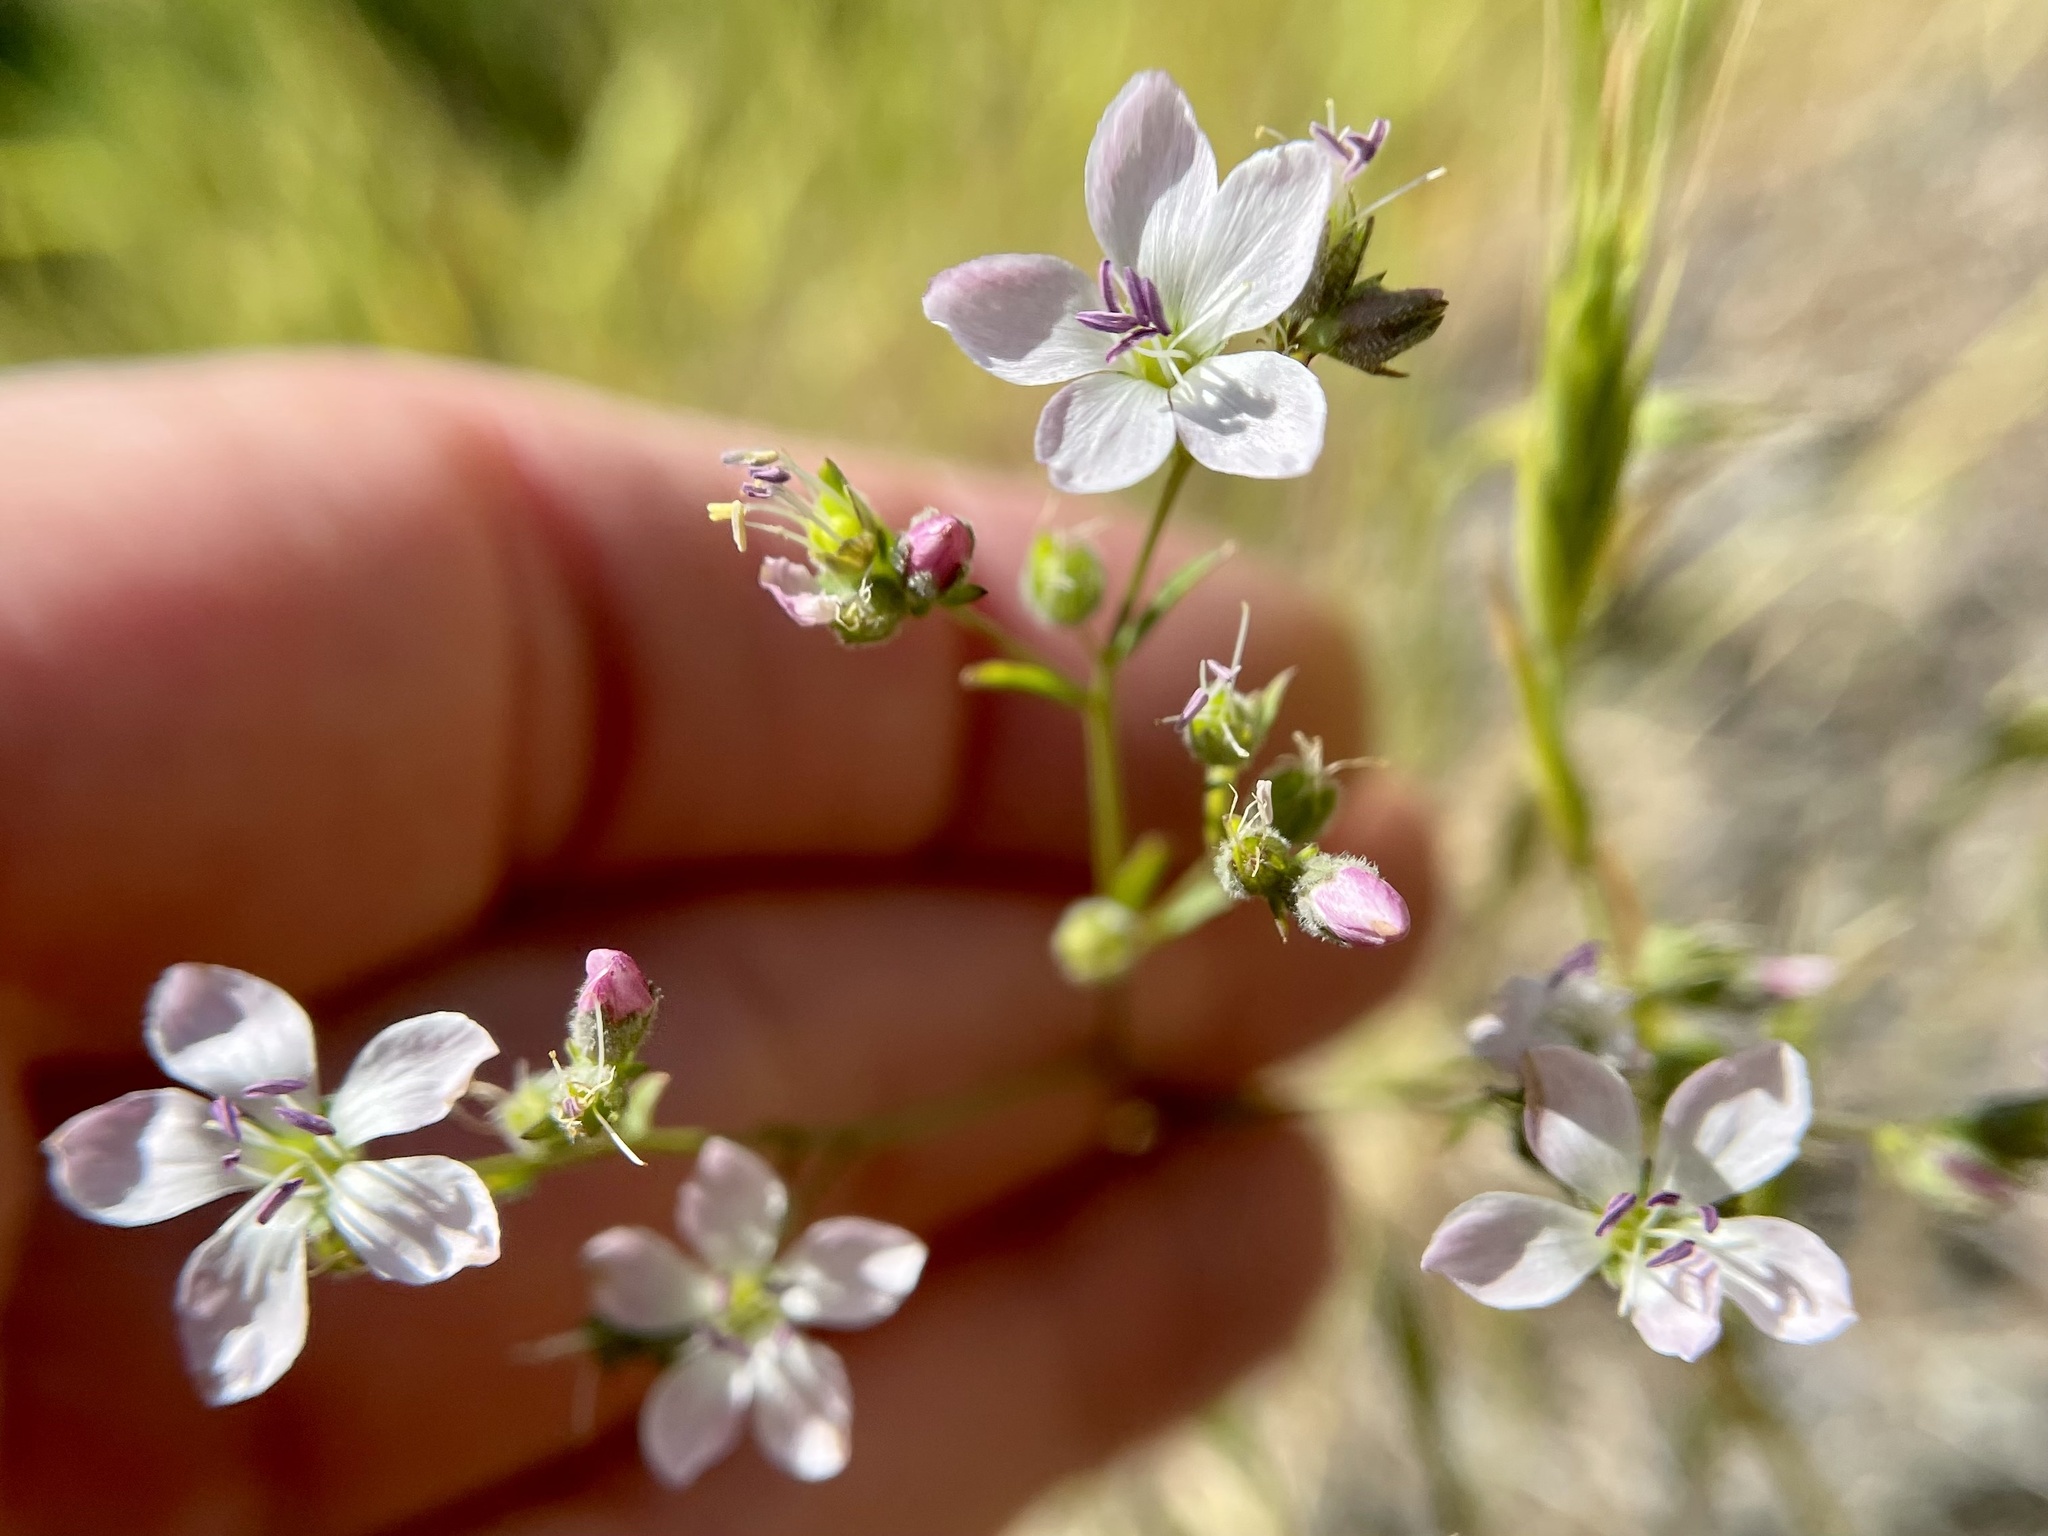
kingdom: Plantae
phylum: Tracheophyta
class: Magnoliopsida
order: Malpighiales
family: Linaceae
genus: Hesperolinon
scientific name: Hesperolinon congestum
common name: Marin dwarf-flax
